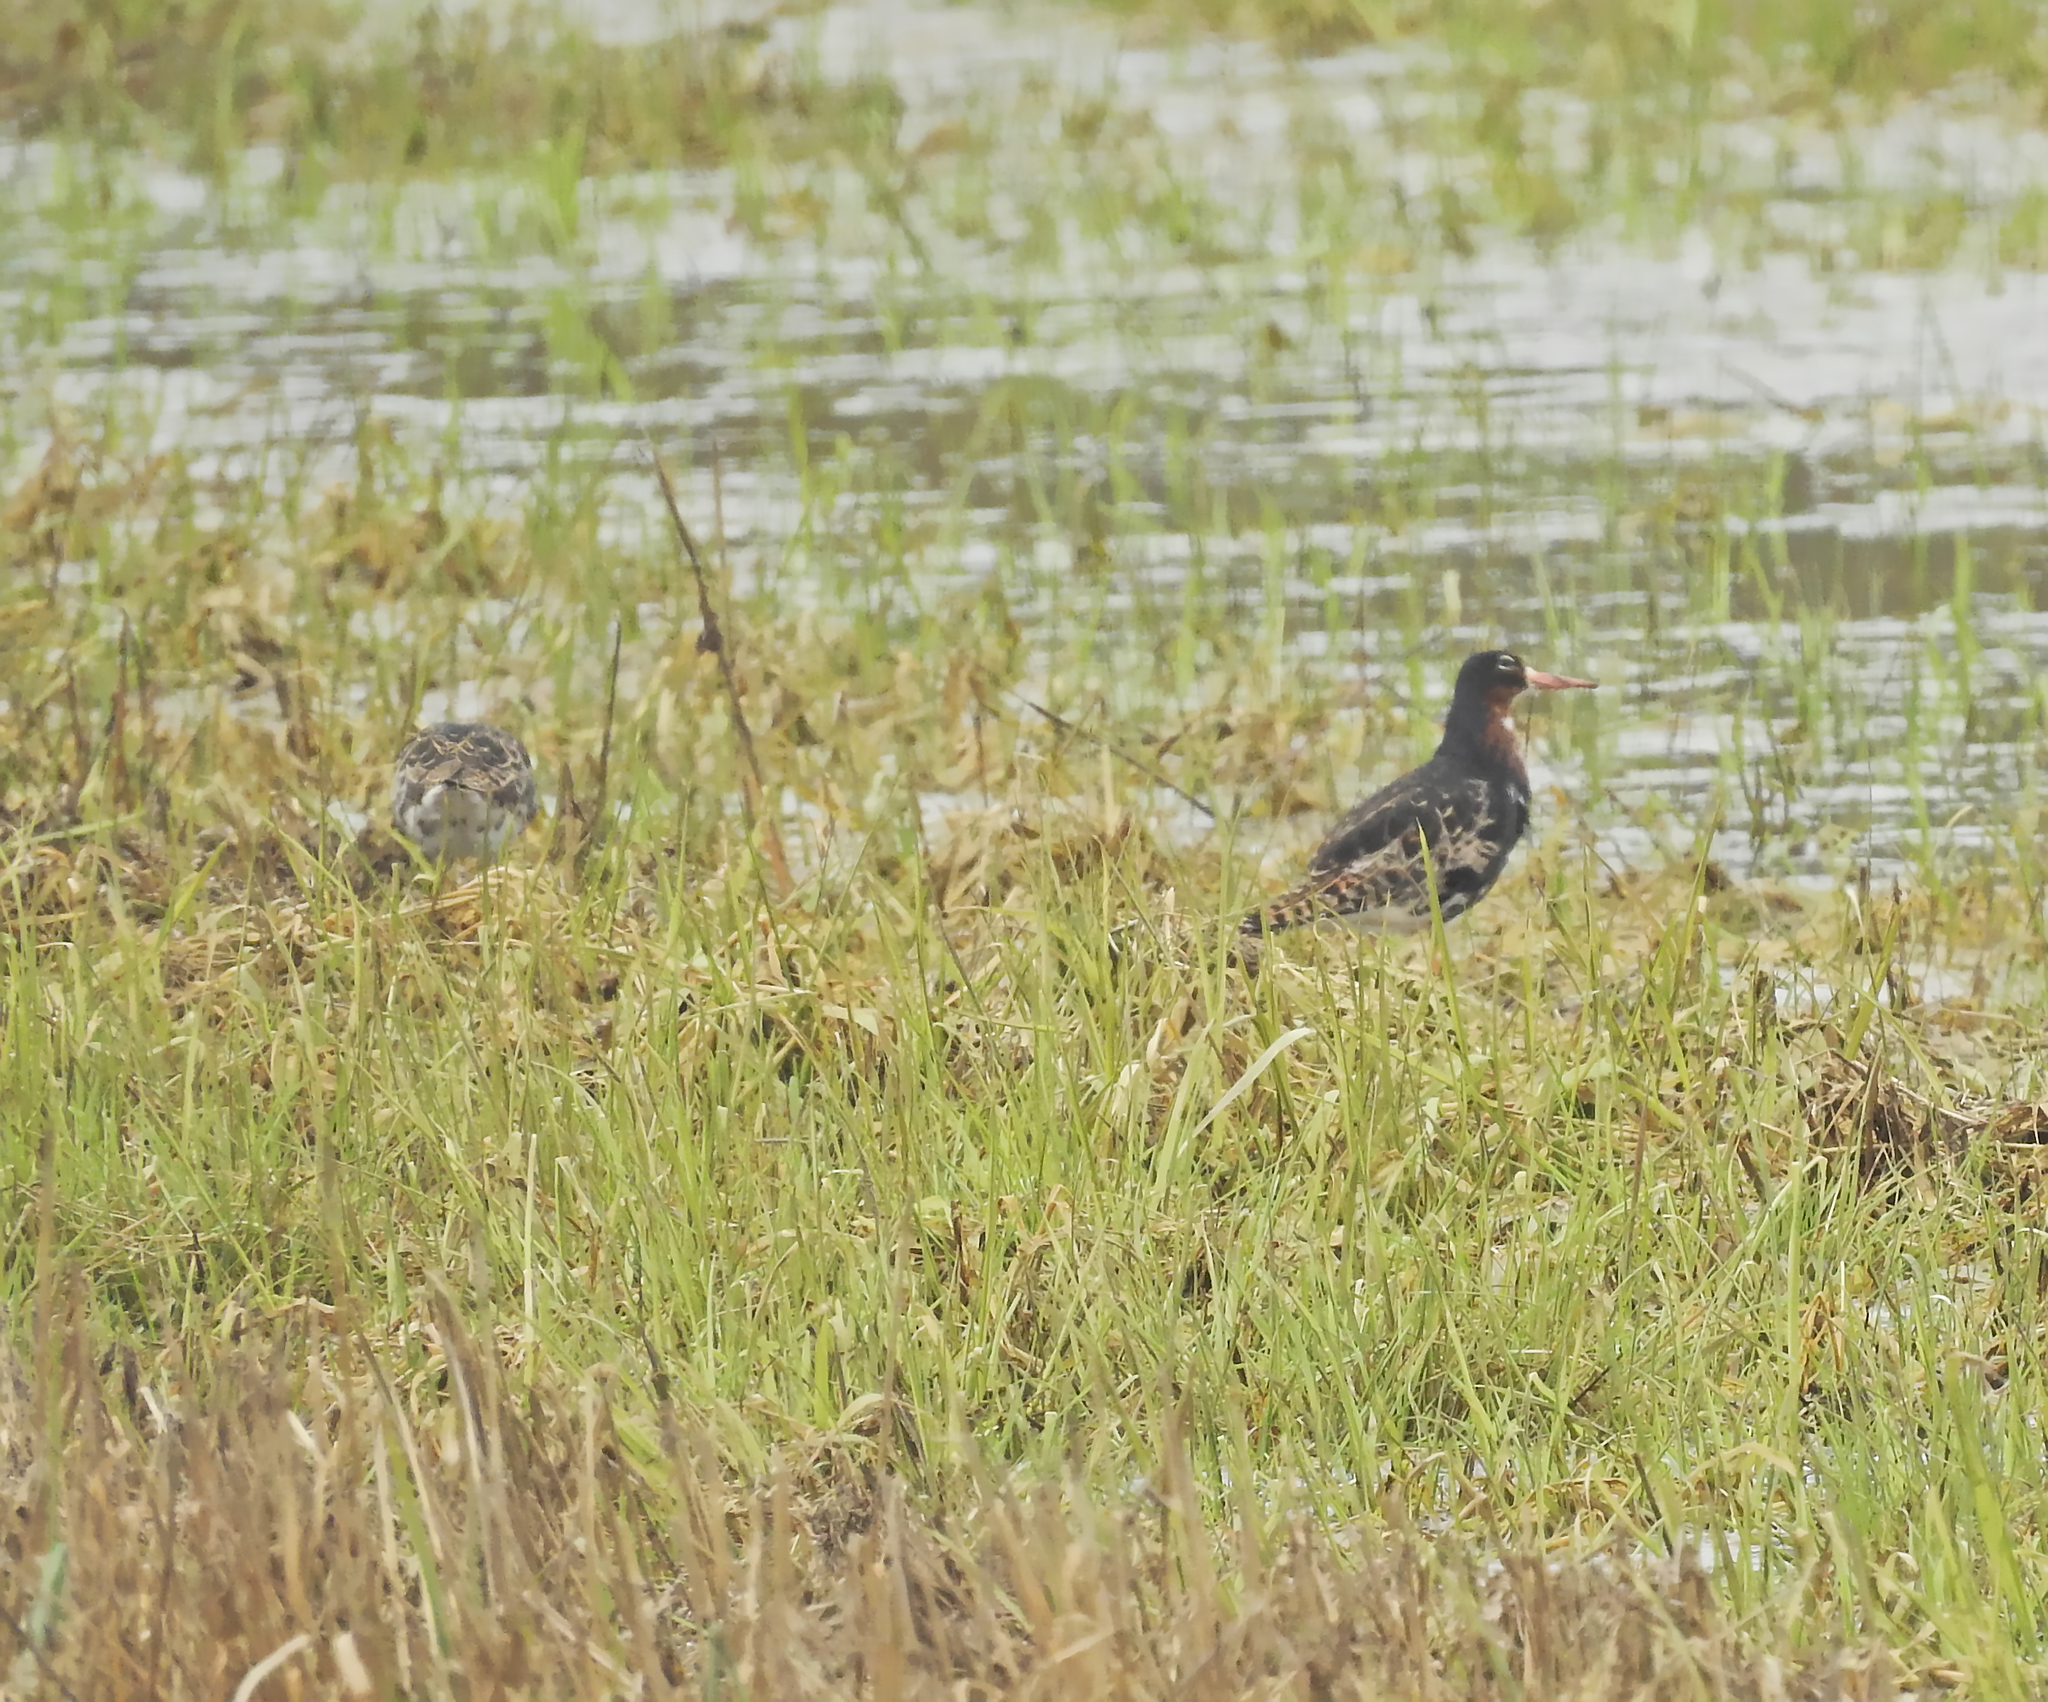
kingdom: Animalia
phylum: Chordata
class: Aves
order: Charadriiformes
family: Scolopacidae
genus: Calidris
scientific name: Calidris pugnax
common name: Ruff
